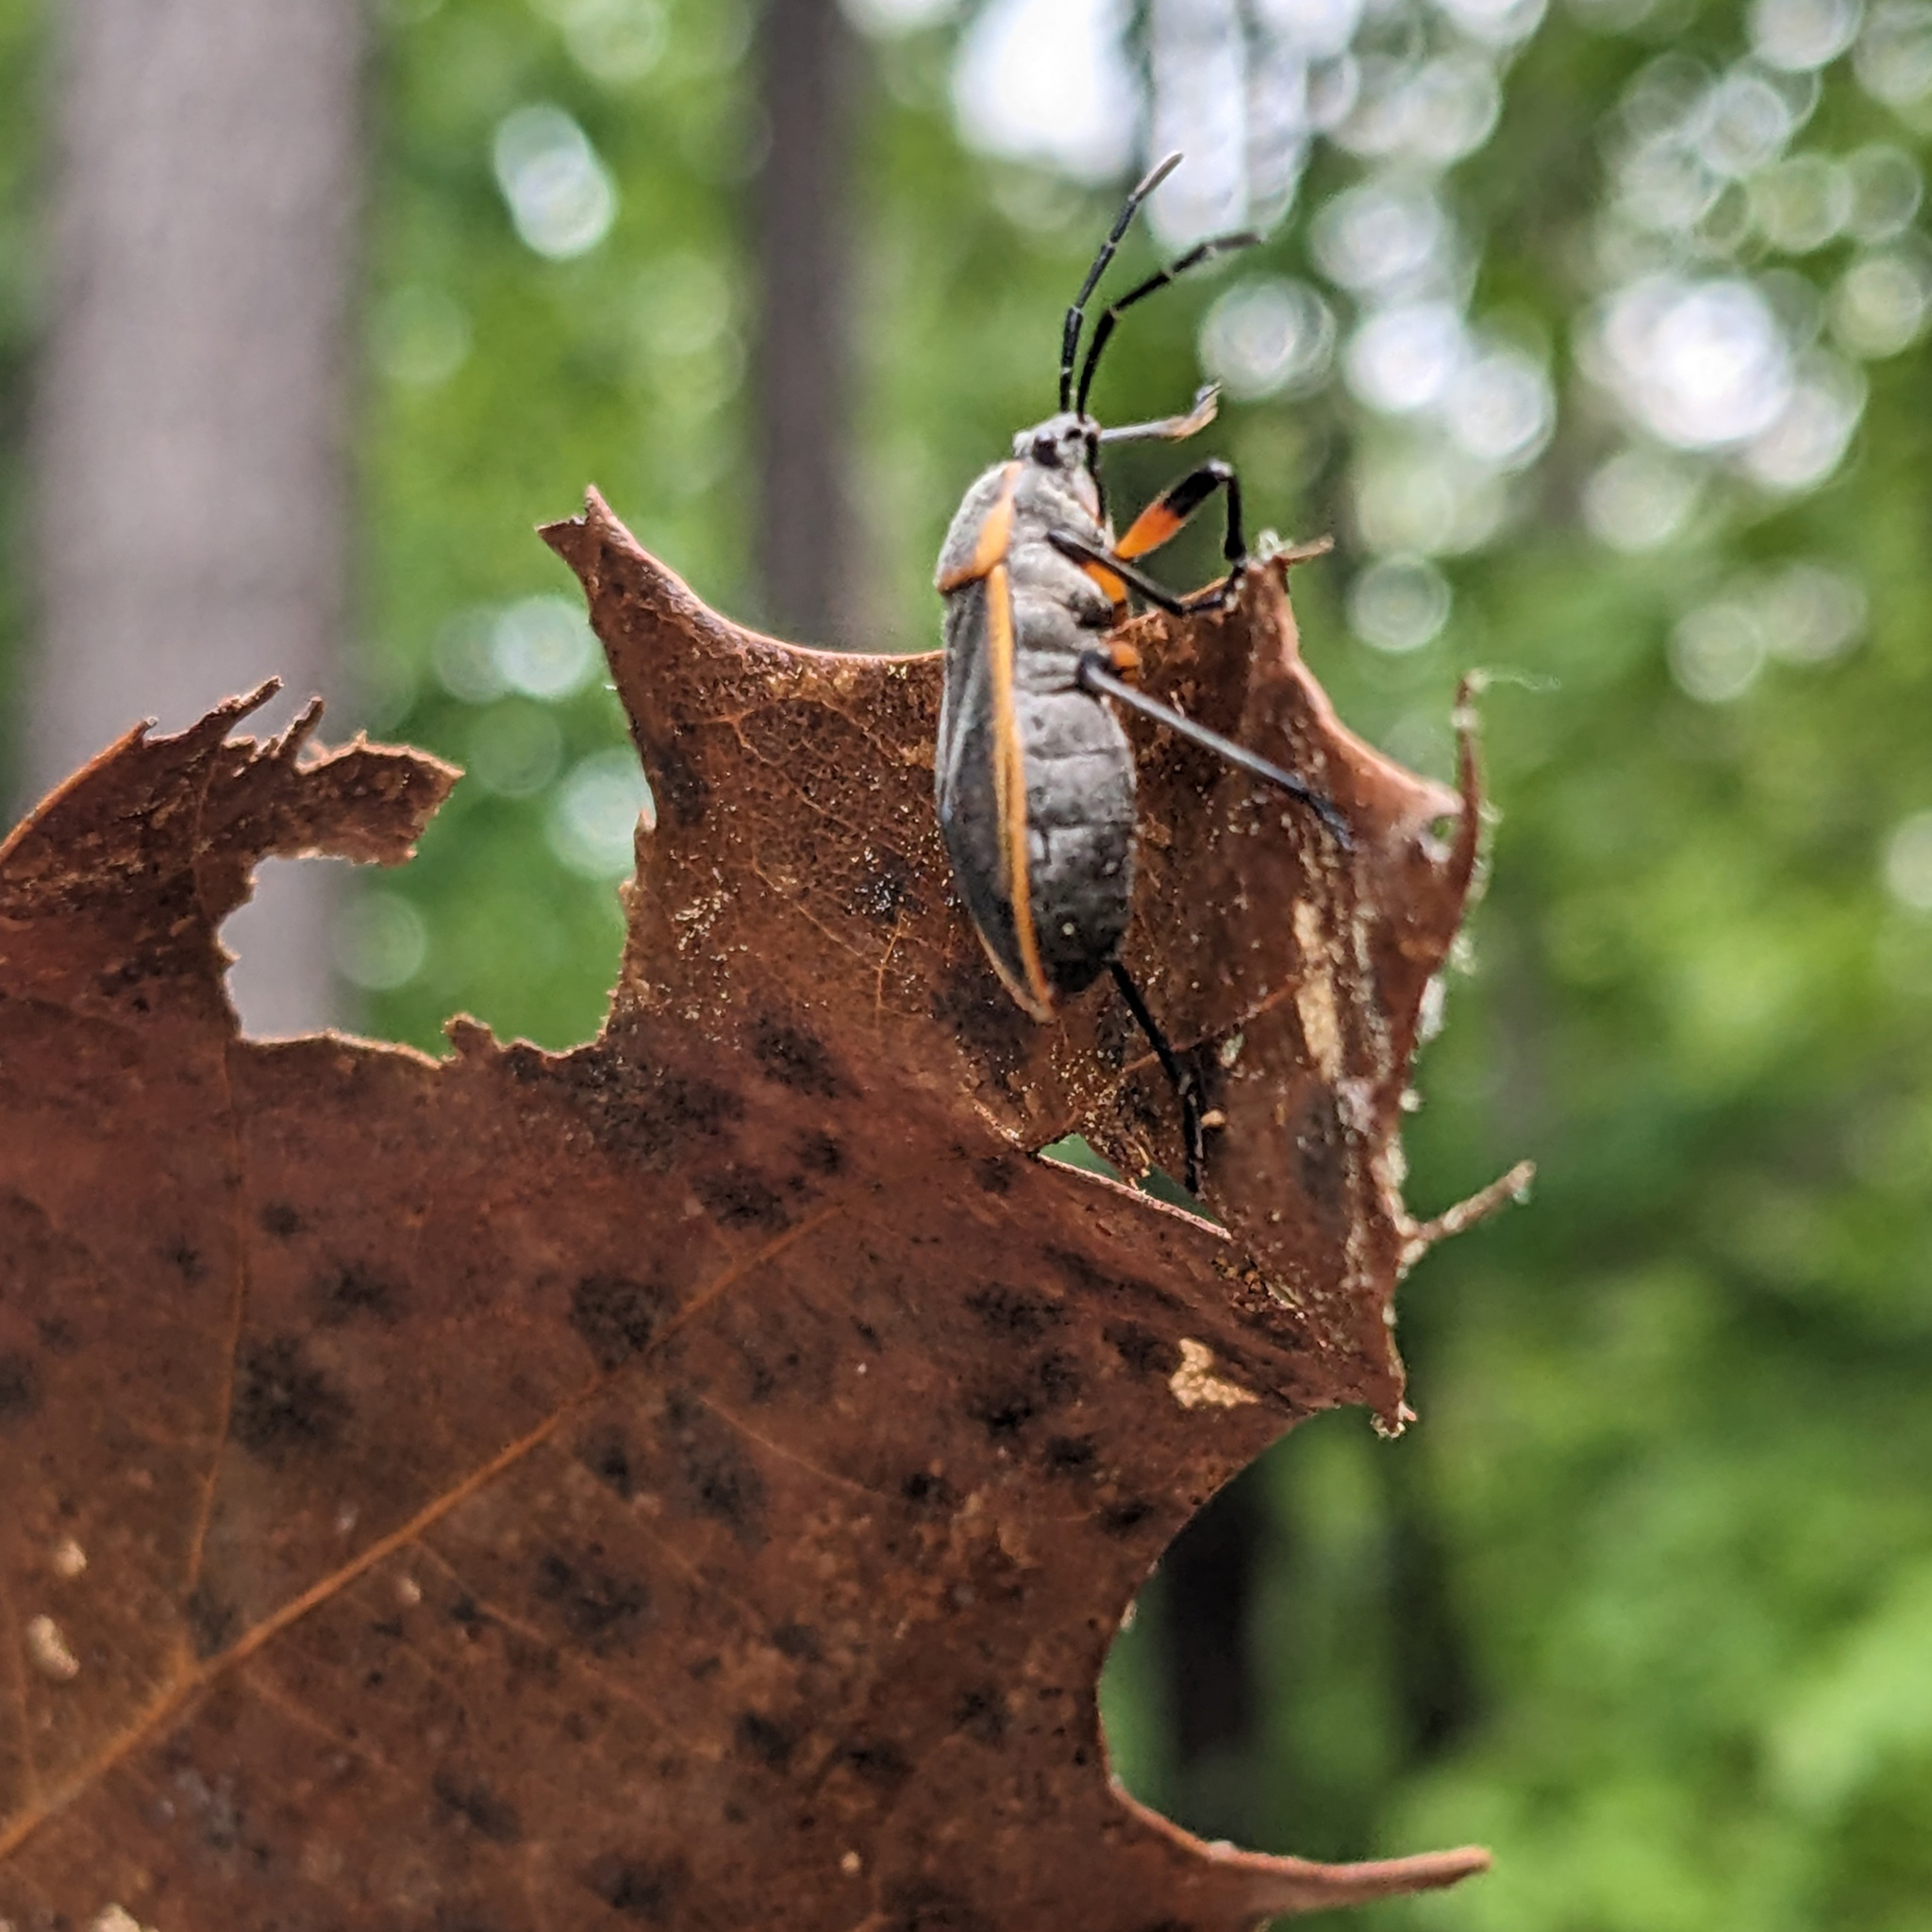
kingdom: Animalia
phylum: Arthropoda
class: Insecta
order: Hemiptera
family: Largidae
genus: Largus
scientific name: Largus succinctus
